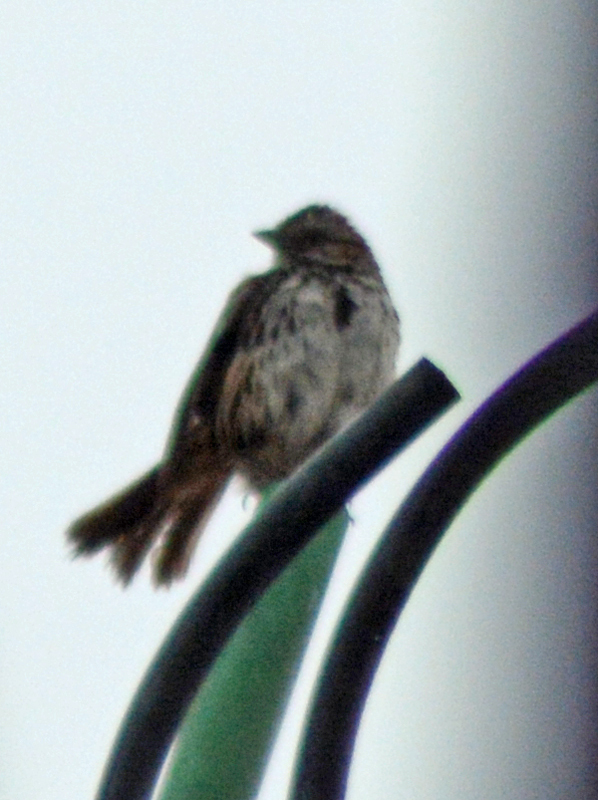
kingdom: Animalia
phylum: Chordata
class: Aves
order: Passeriformes
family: Passerellidae
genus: Melospiza
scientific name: Melospiza melodia
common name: Song sparrow
